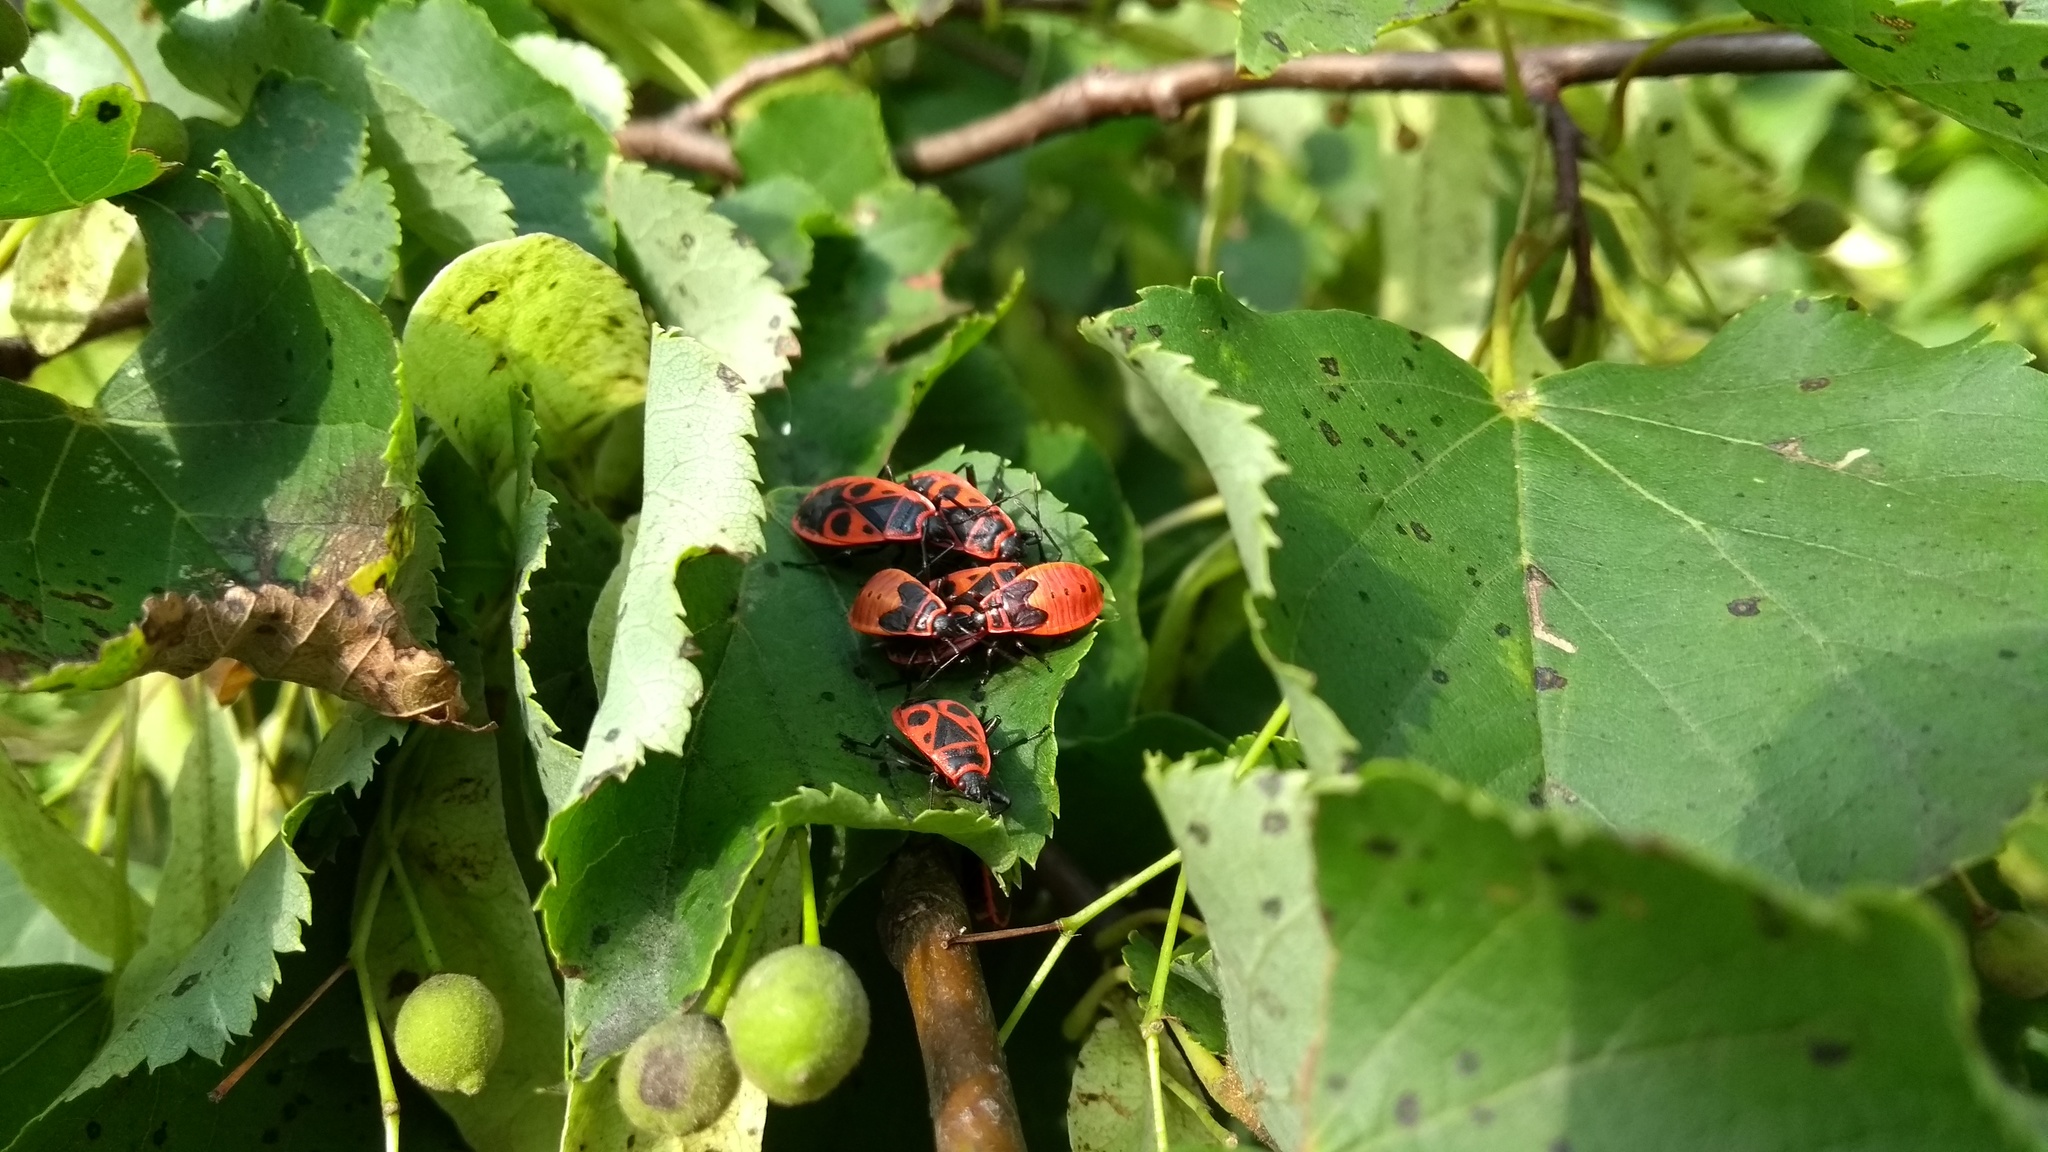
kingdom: Animalia
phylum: Arthropoda
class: Insecta
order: Hemiptera
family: Pyrrhocoridae
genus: Pyrrhocoris
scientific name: Pyrrhocoris apterus
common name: Firebug
